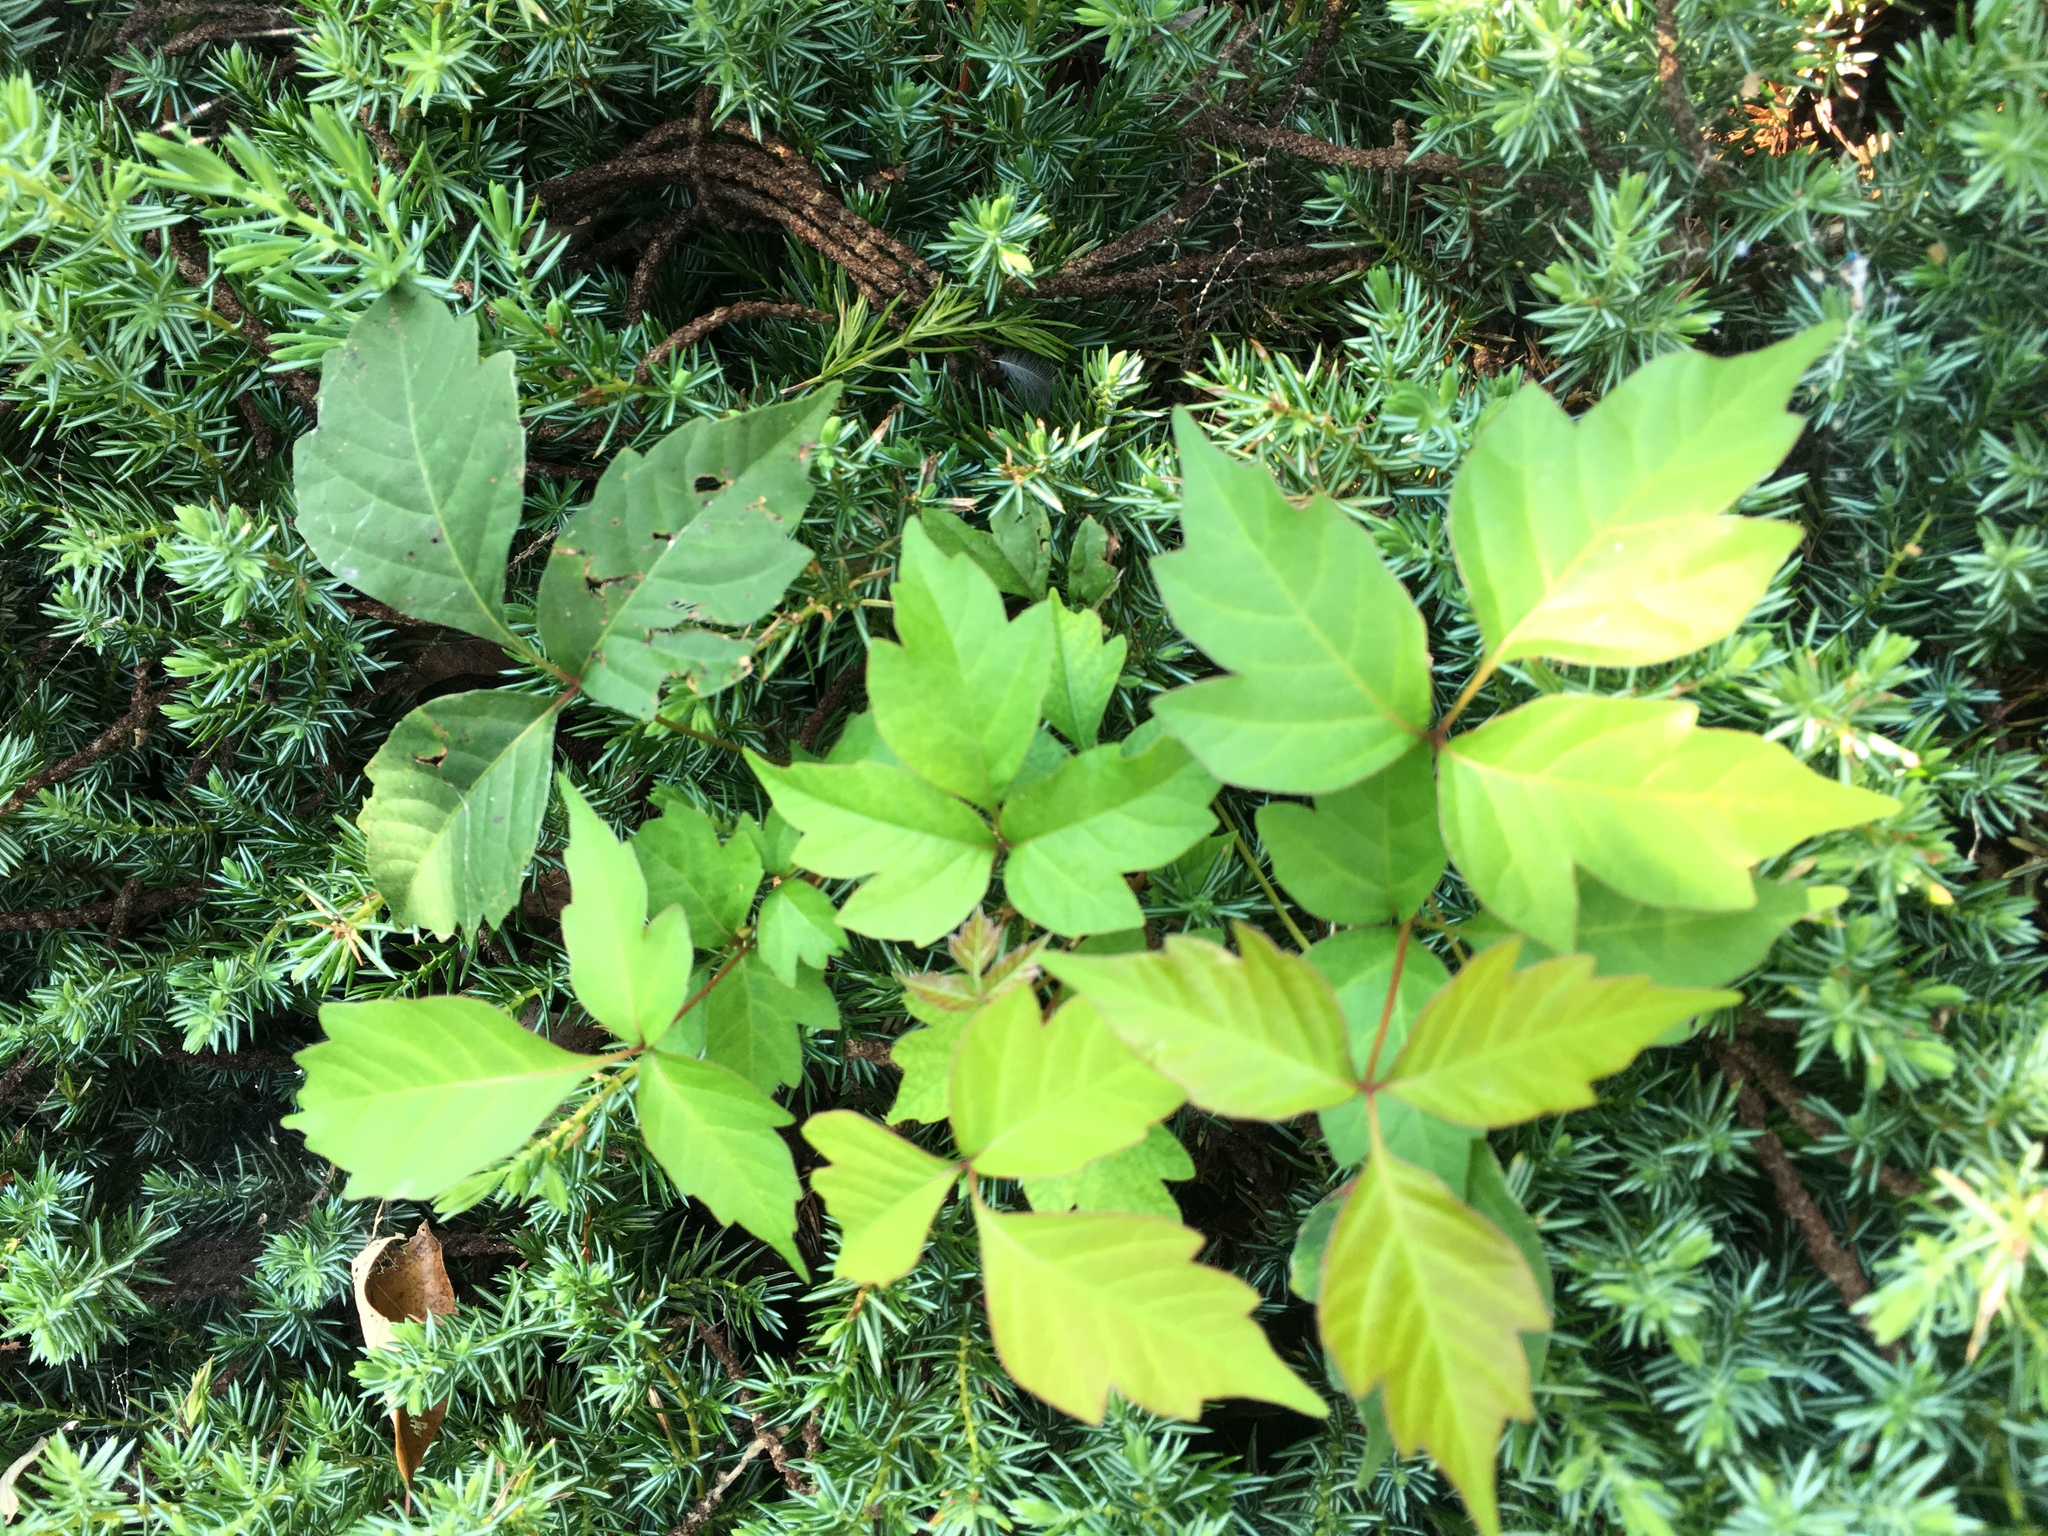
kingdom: Plantae
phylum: Tracheophyta
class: Magnoliopsida
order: Sapindales
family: Anacardiaceae
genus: Toxicodendron
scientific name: Toxicodendron radicans
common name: Poison ivy
